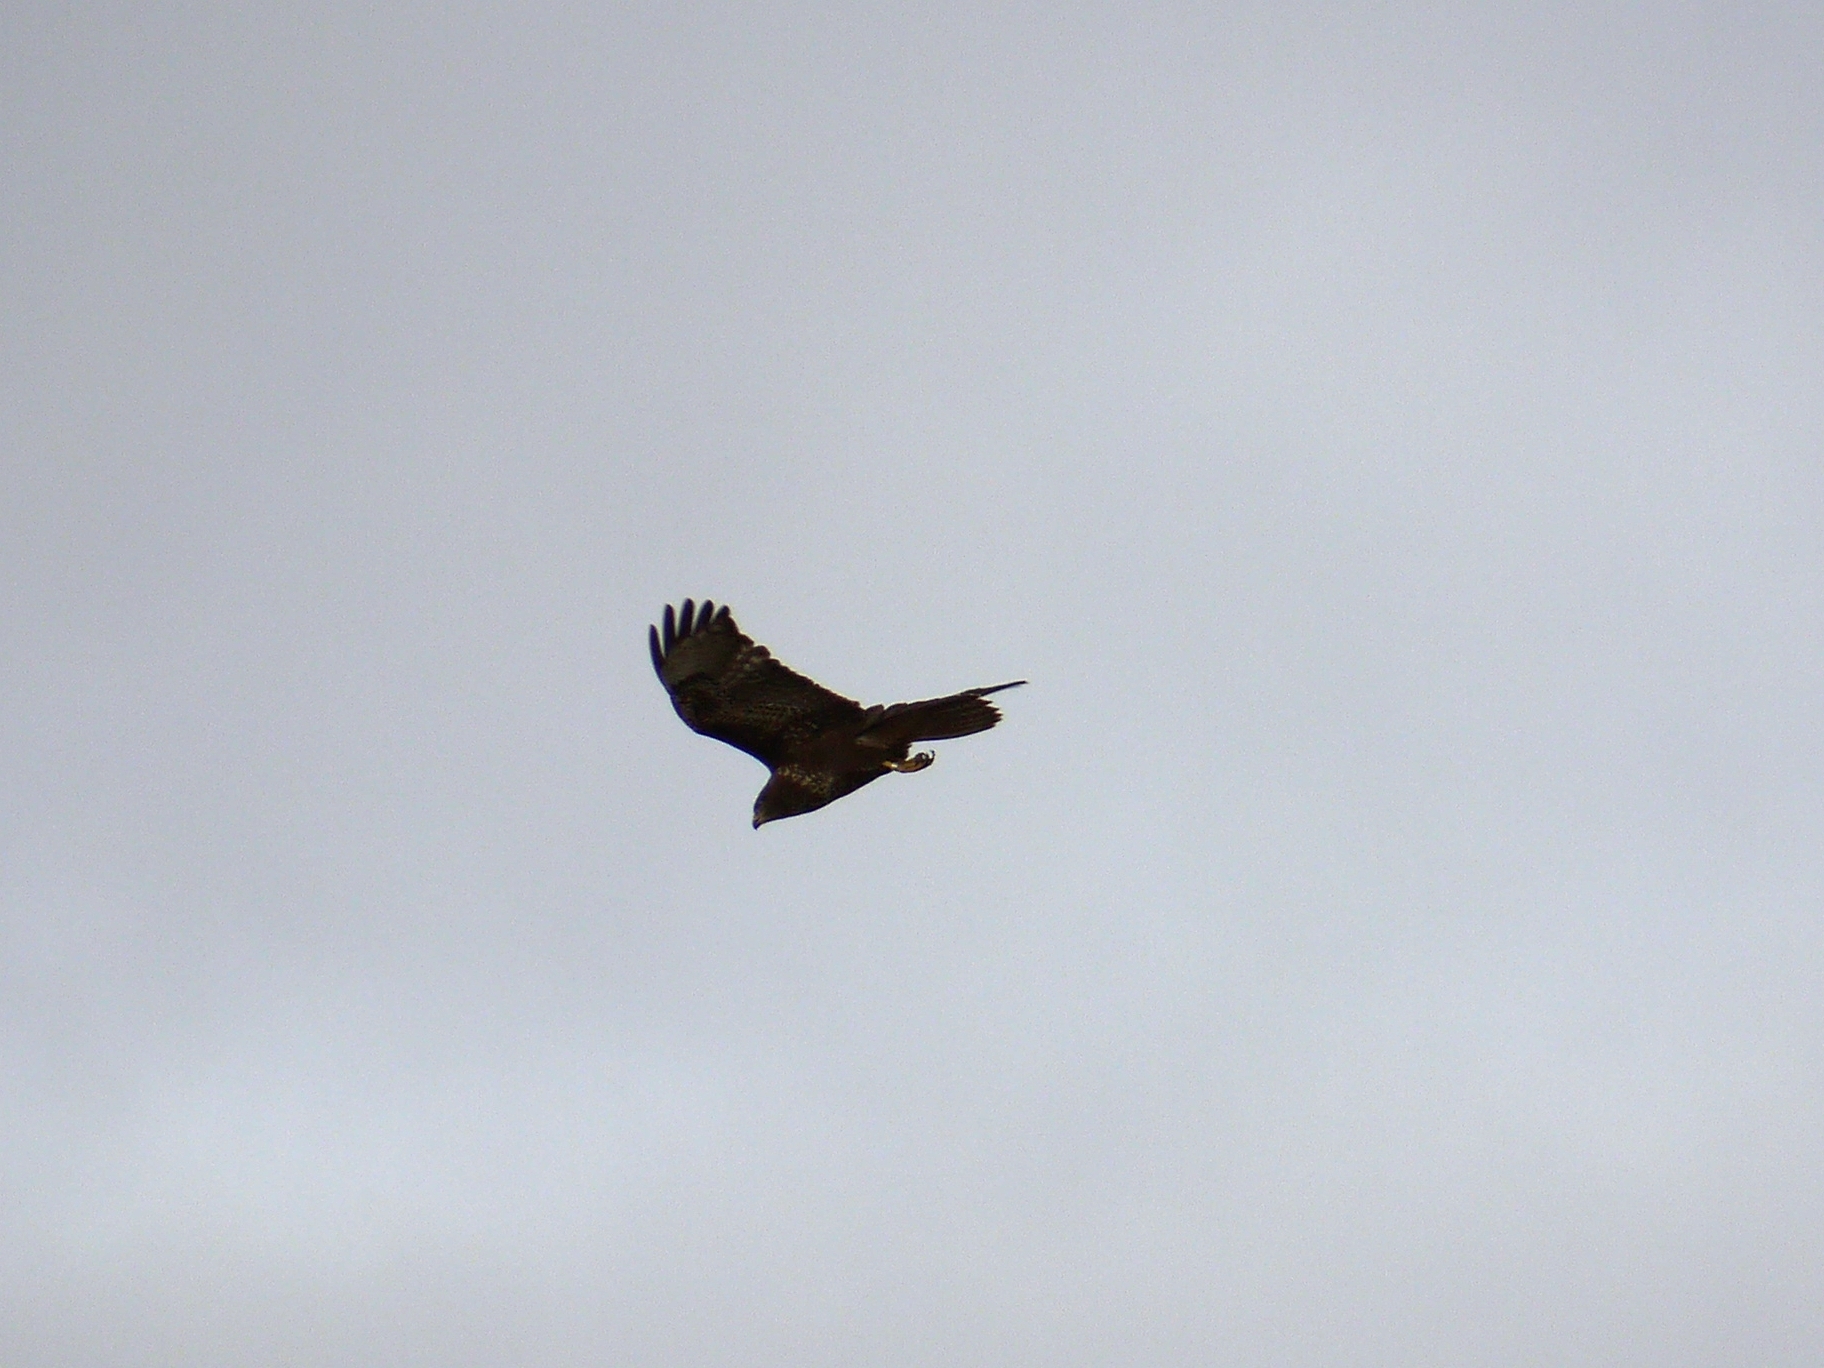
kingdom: Animalia
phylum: Chordata
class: Aves
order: Accipitriformes
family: Accipitridae
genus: Buteo
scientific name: Buteo buteo
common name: Common buzzard
